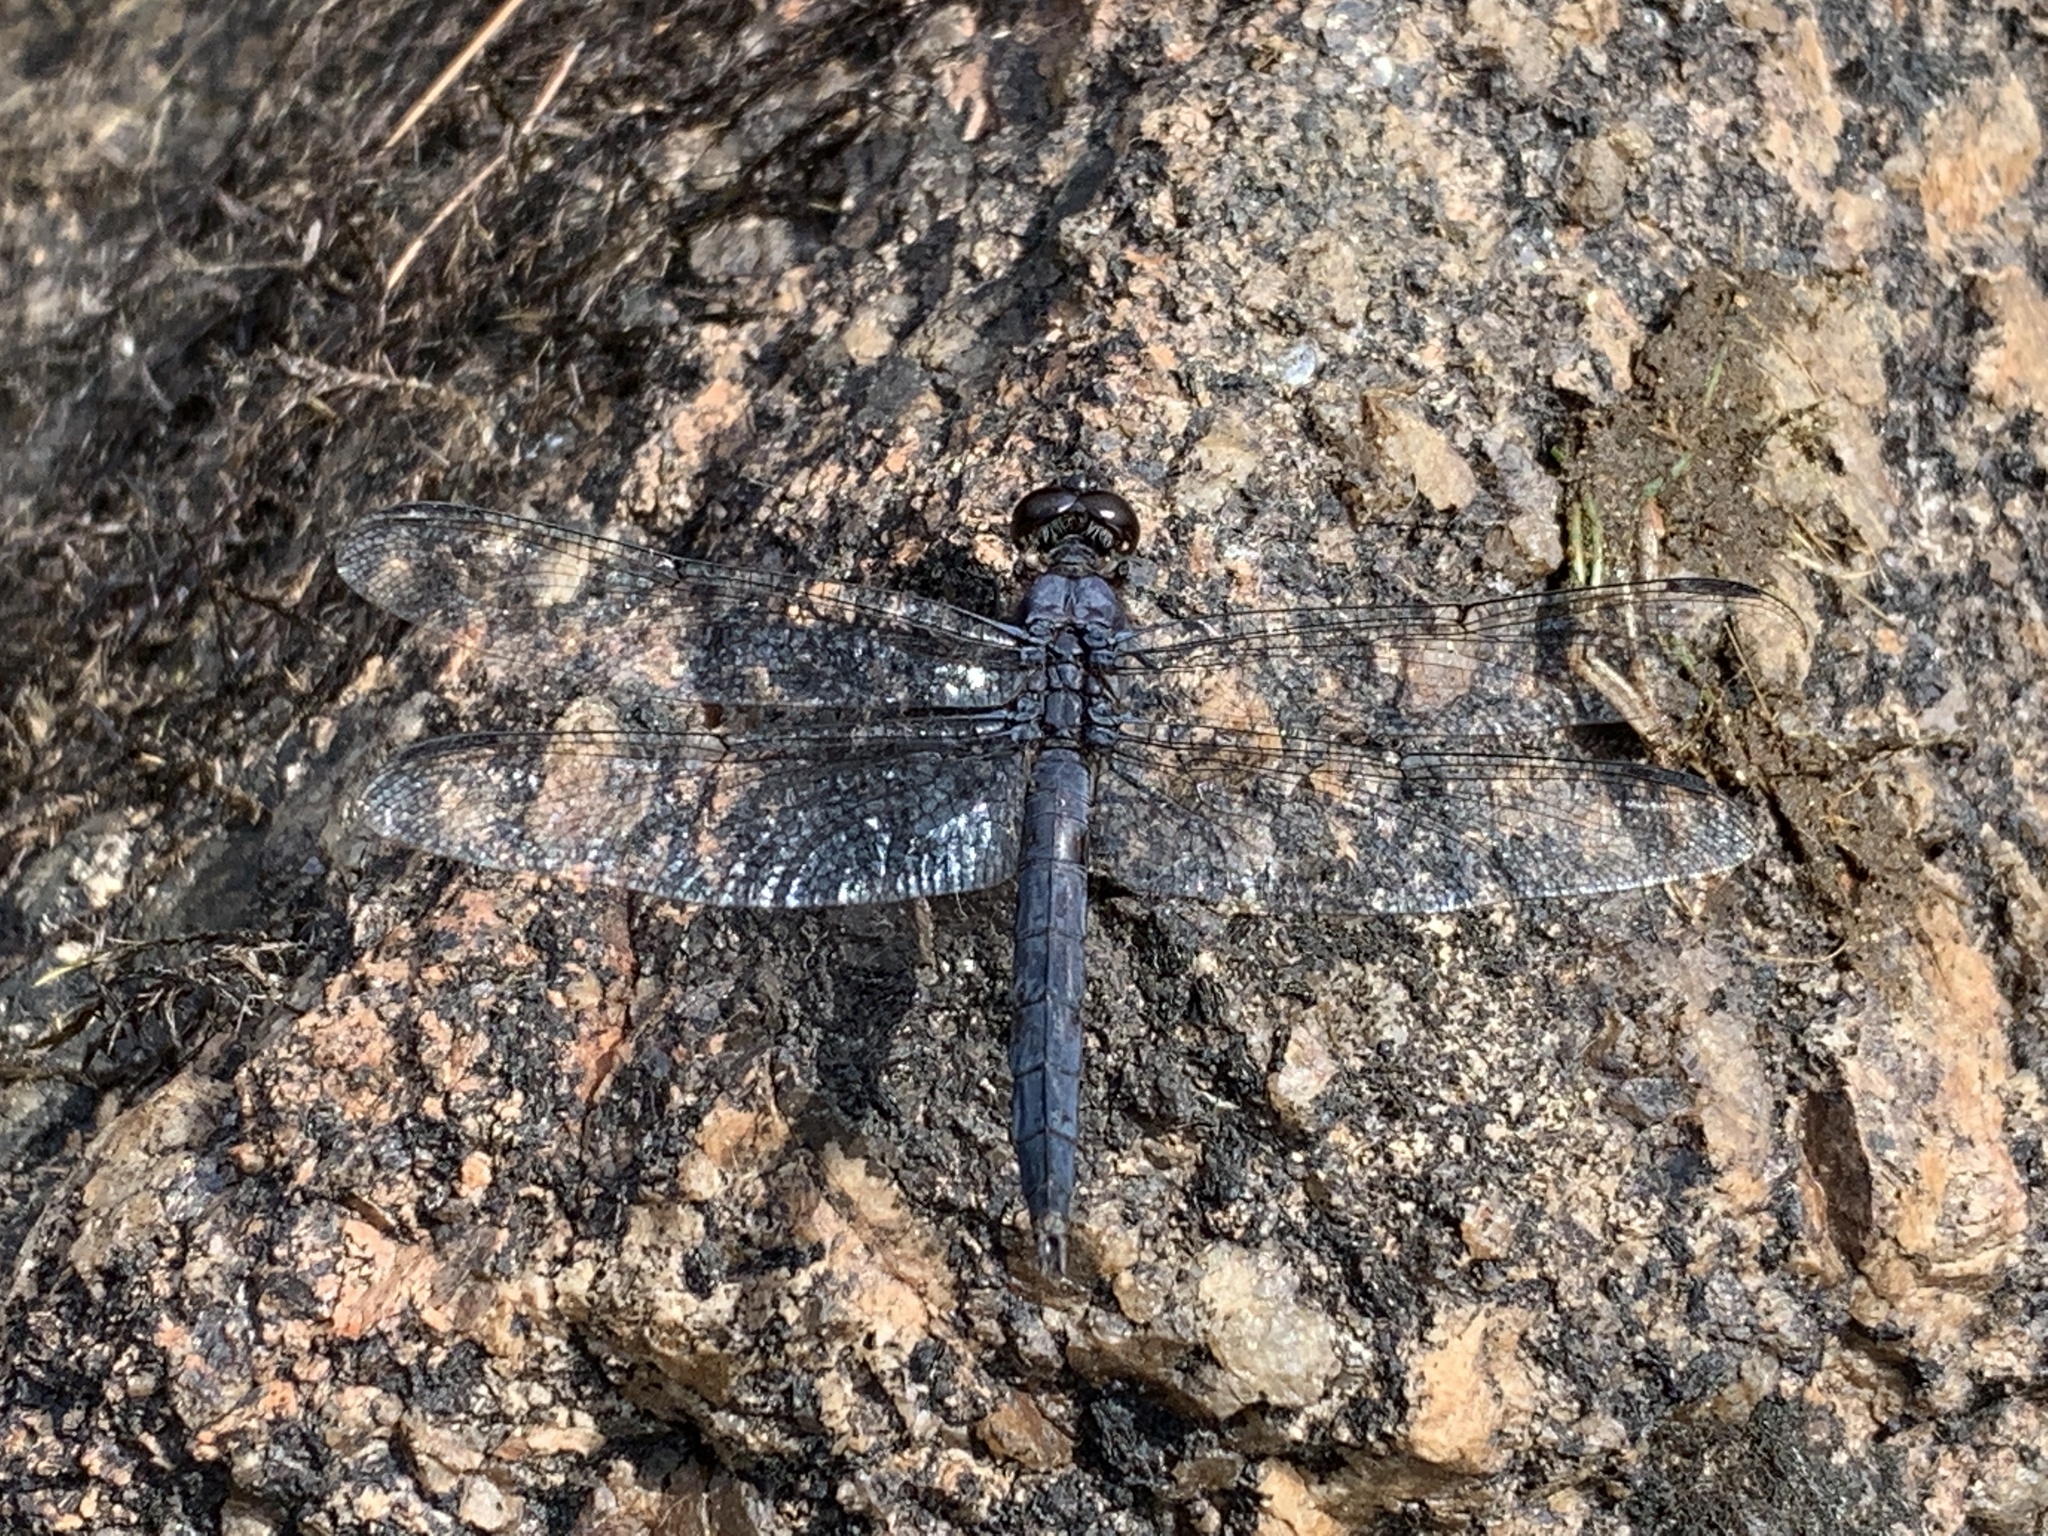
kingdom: Animalia
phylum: Arthropoda
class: Insecta
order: Odonata
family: Libellulidae
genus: Libellula
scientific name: Libellula incesta
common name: Slaty skimmer
